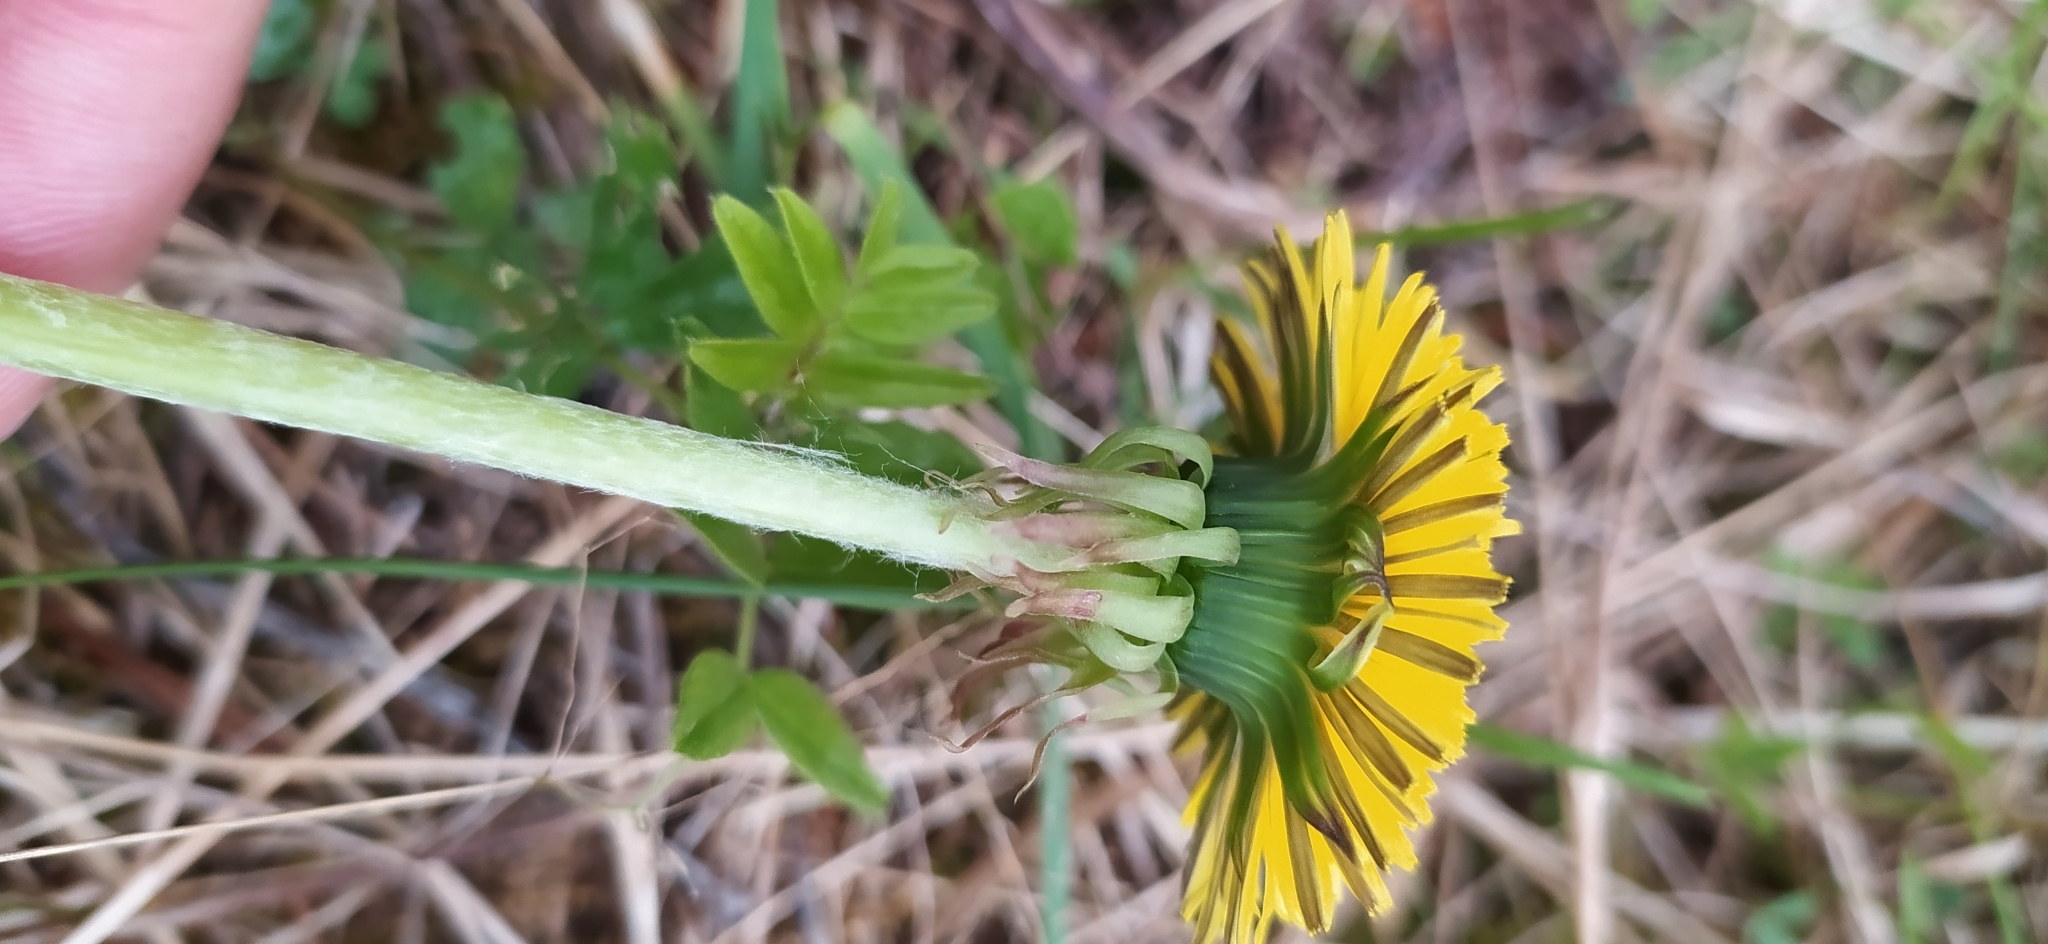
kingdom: Plantae
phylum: Tracheophyta
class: Magnoliopsida
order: Asterales
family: Asteraceae
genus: Taraxacum
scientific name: Taraxacum officinale
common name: Common dandelion
